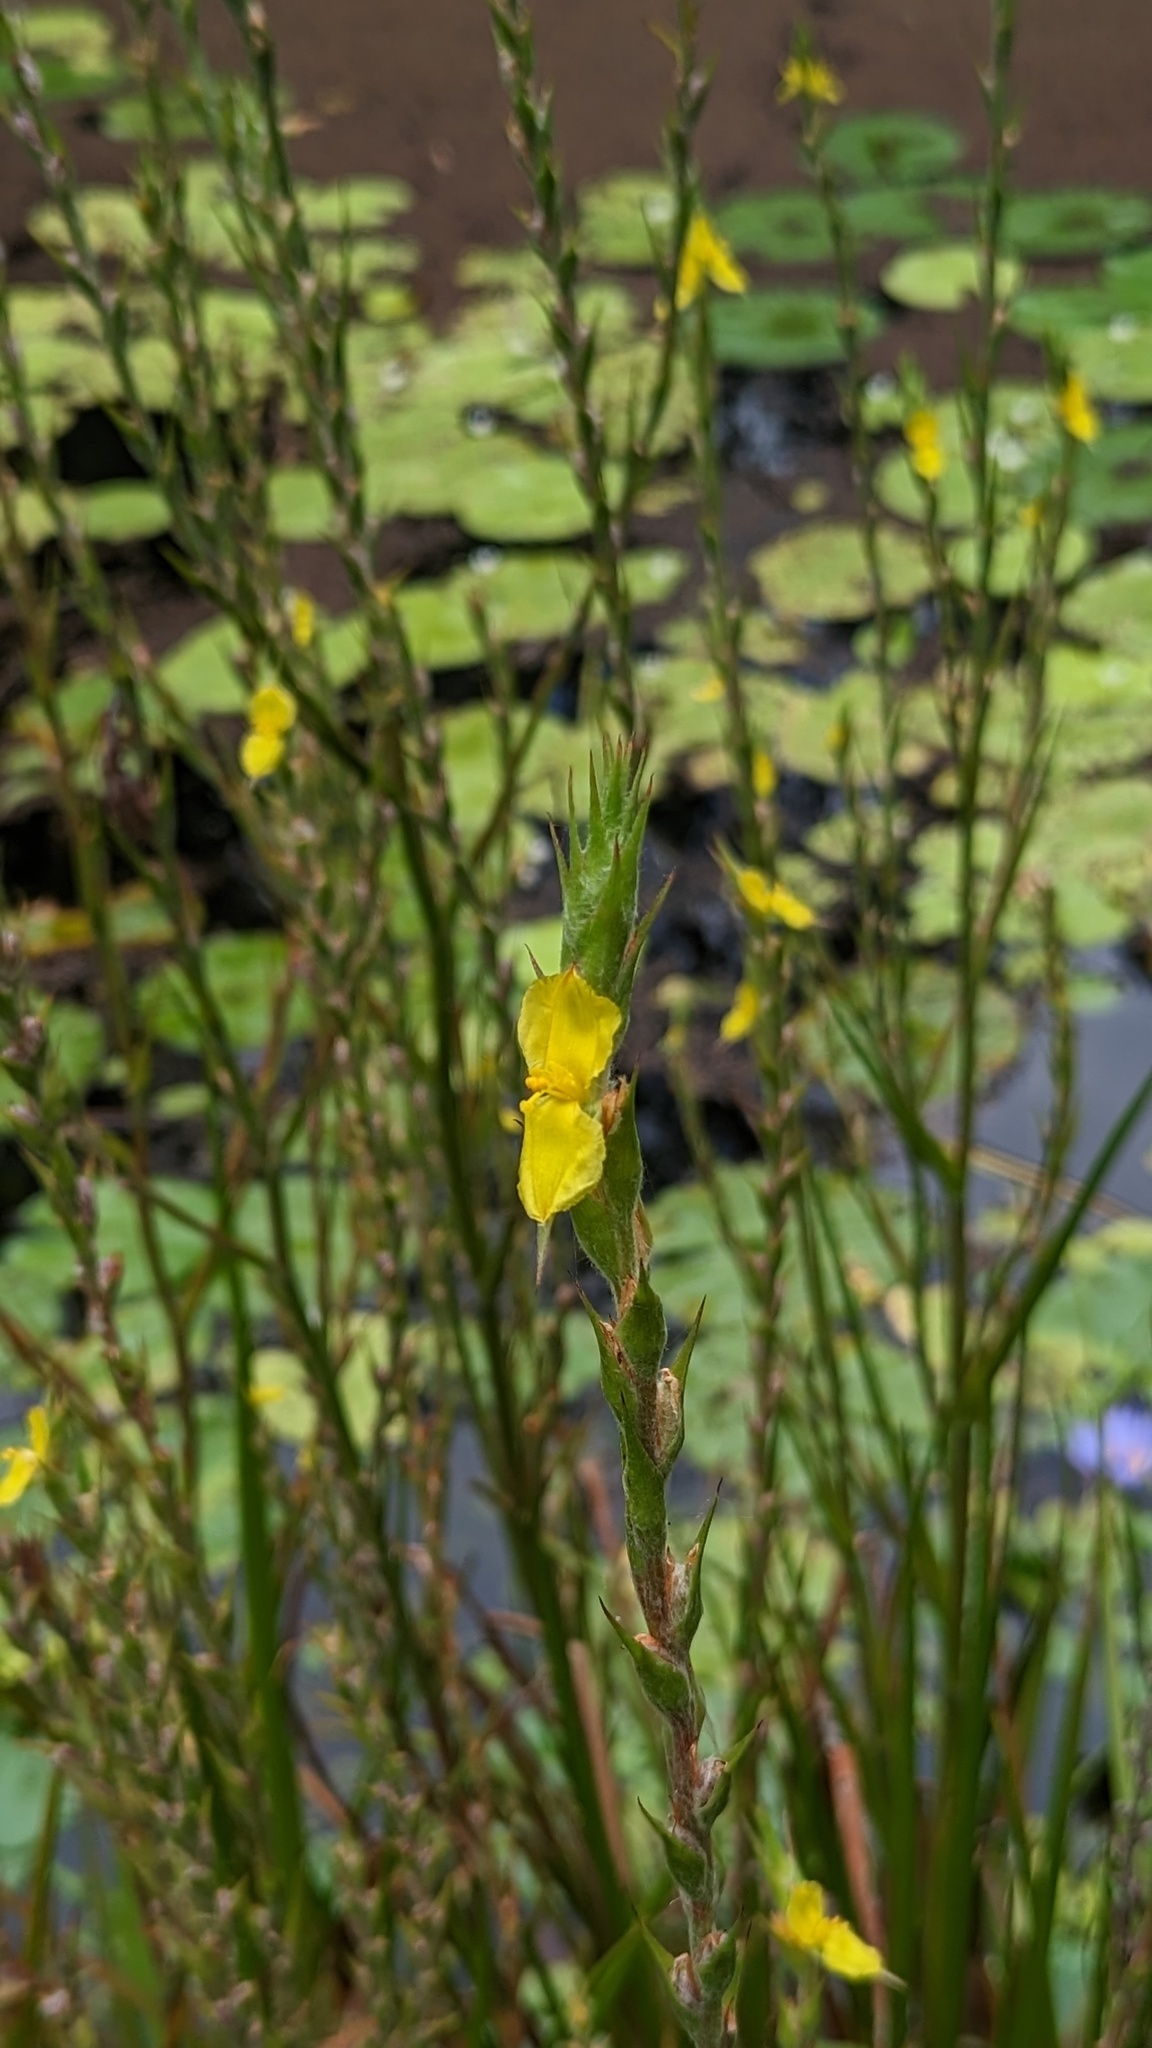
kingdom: Plantae
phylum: Tracheophyta
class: Liliopsida
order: Commelinales
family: Philydraceae
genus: Philydrum
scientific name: Philydrum lanuginosum
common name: Woolly frog's mouth
